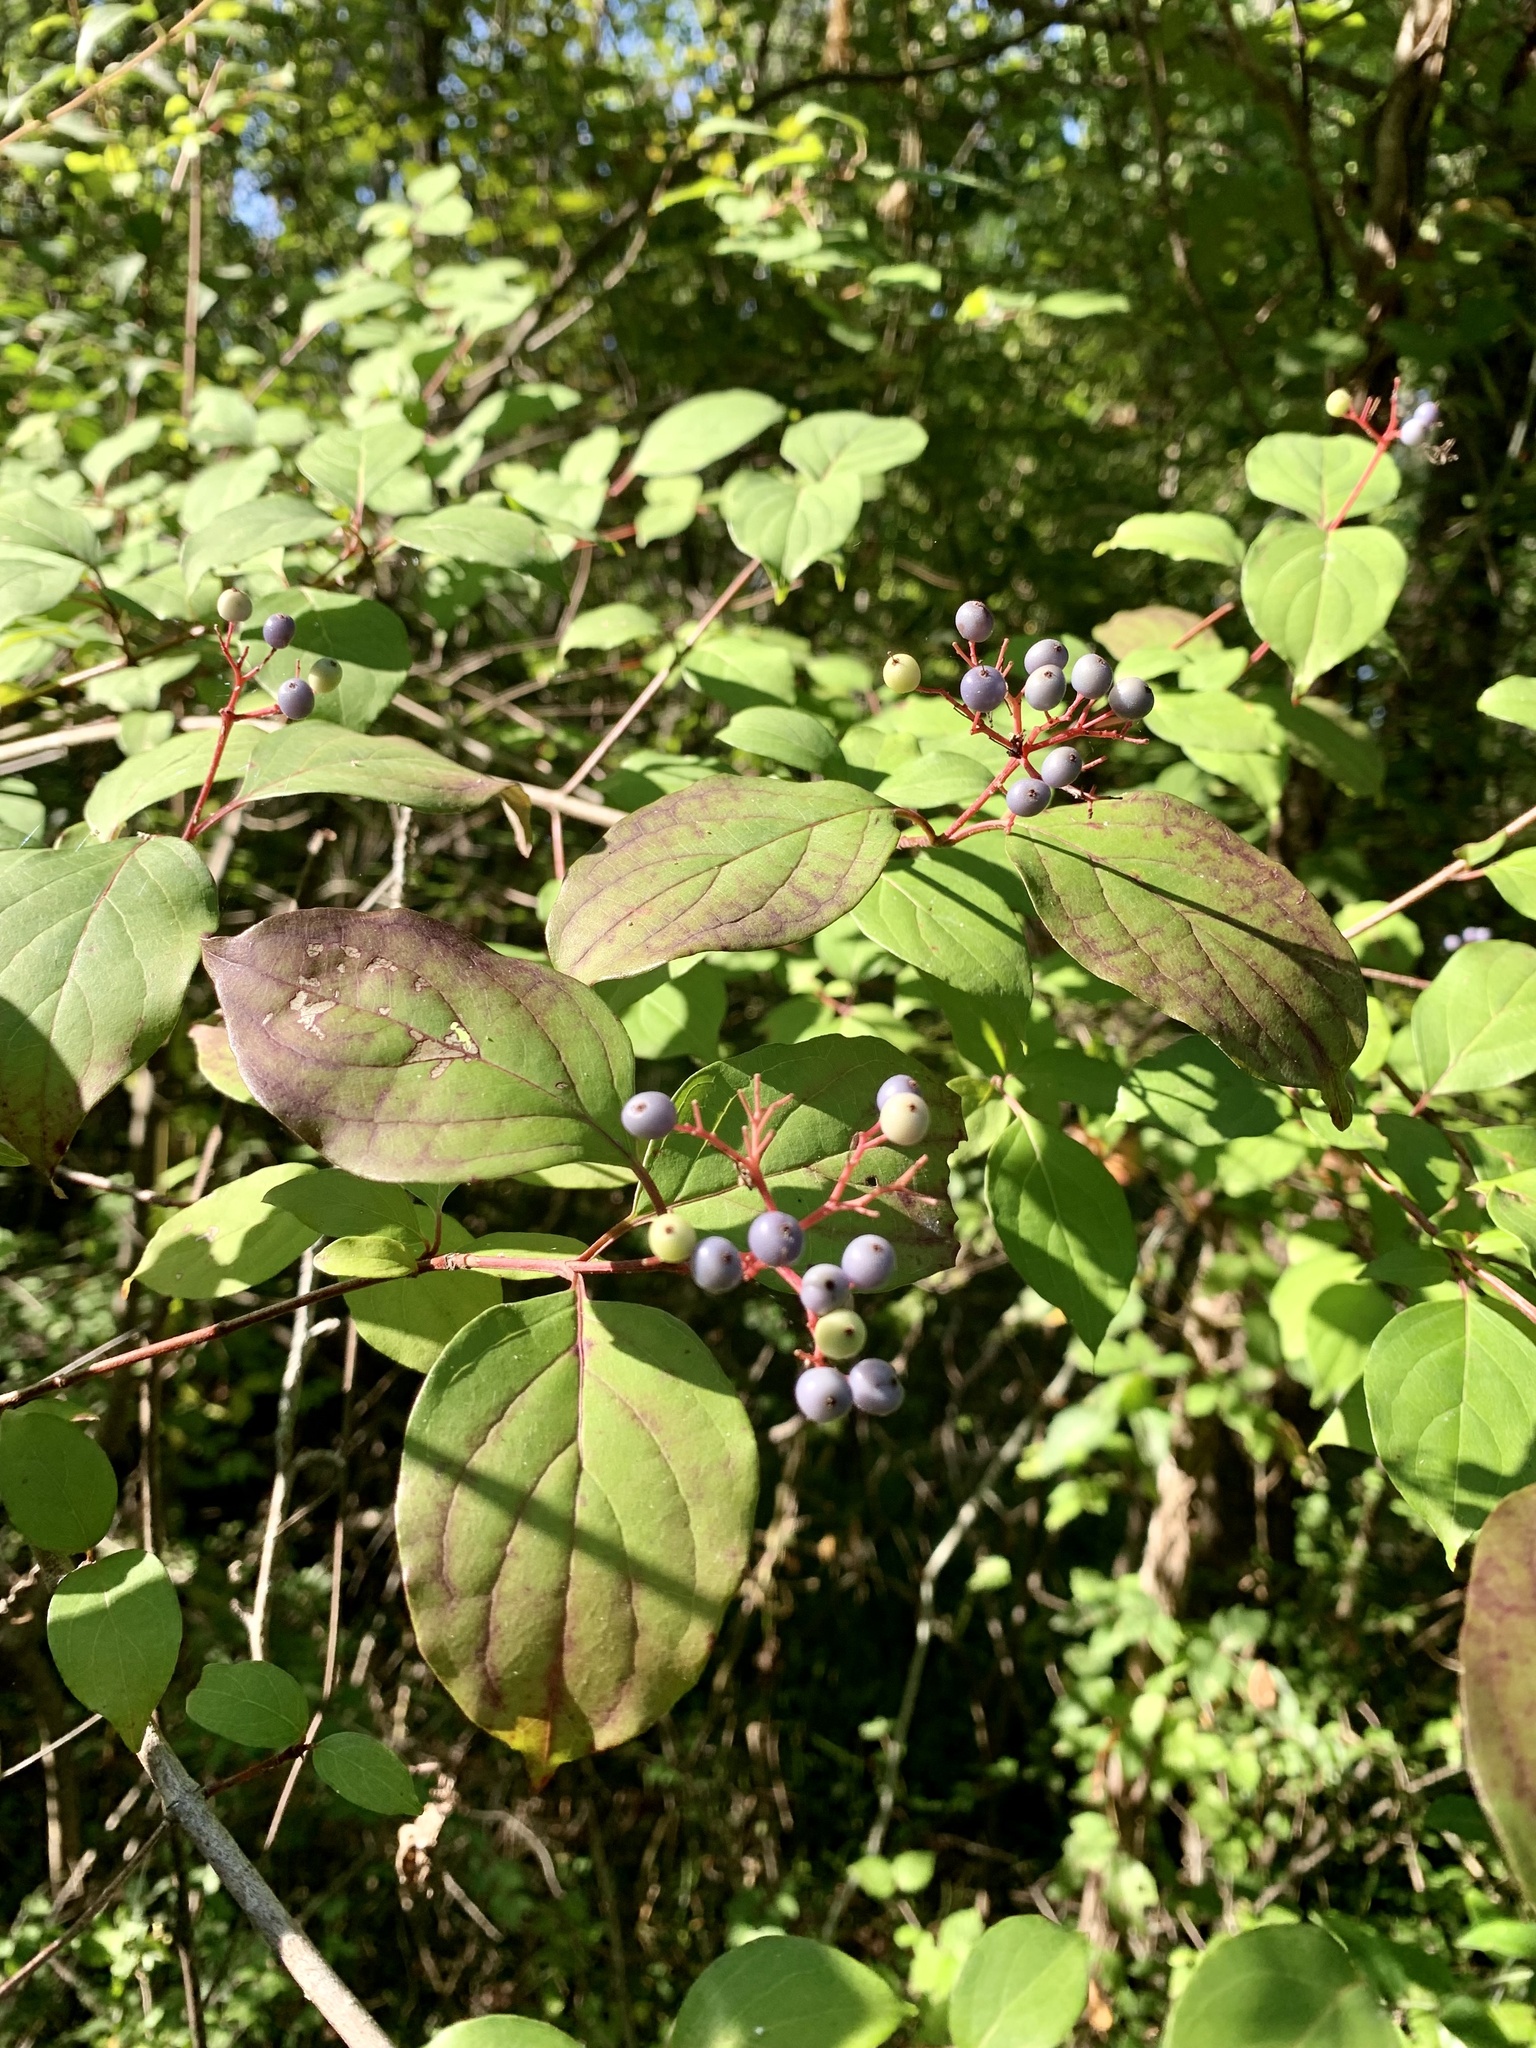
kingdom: Plantae
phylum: Tracheophyta
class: Magnoliopsida
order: Cornales
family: Cornaceae
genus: Cornus
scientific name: Cornus foemina
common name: Swamp dogwood
